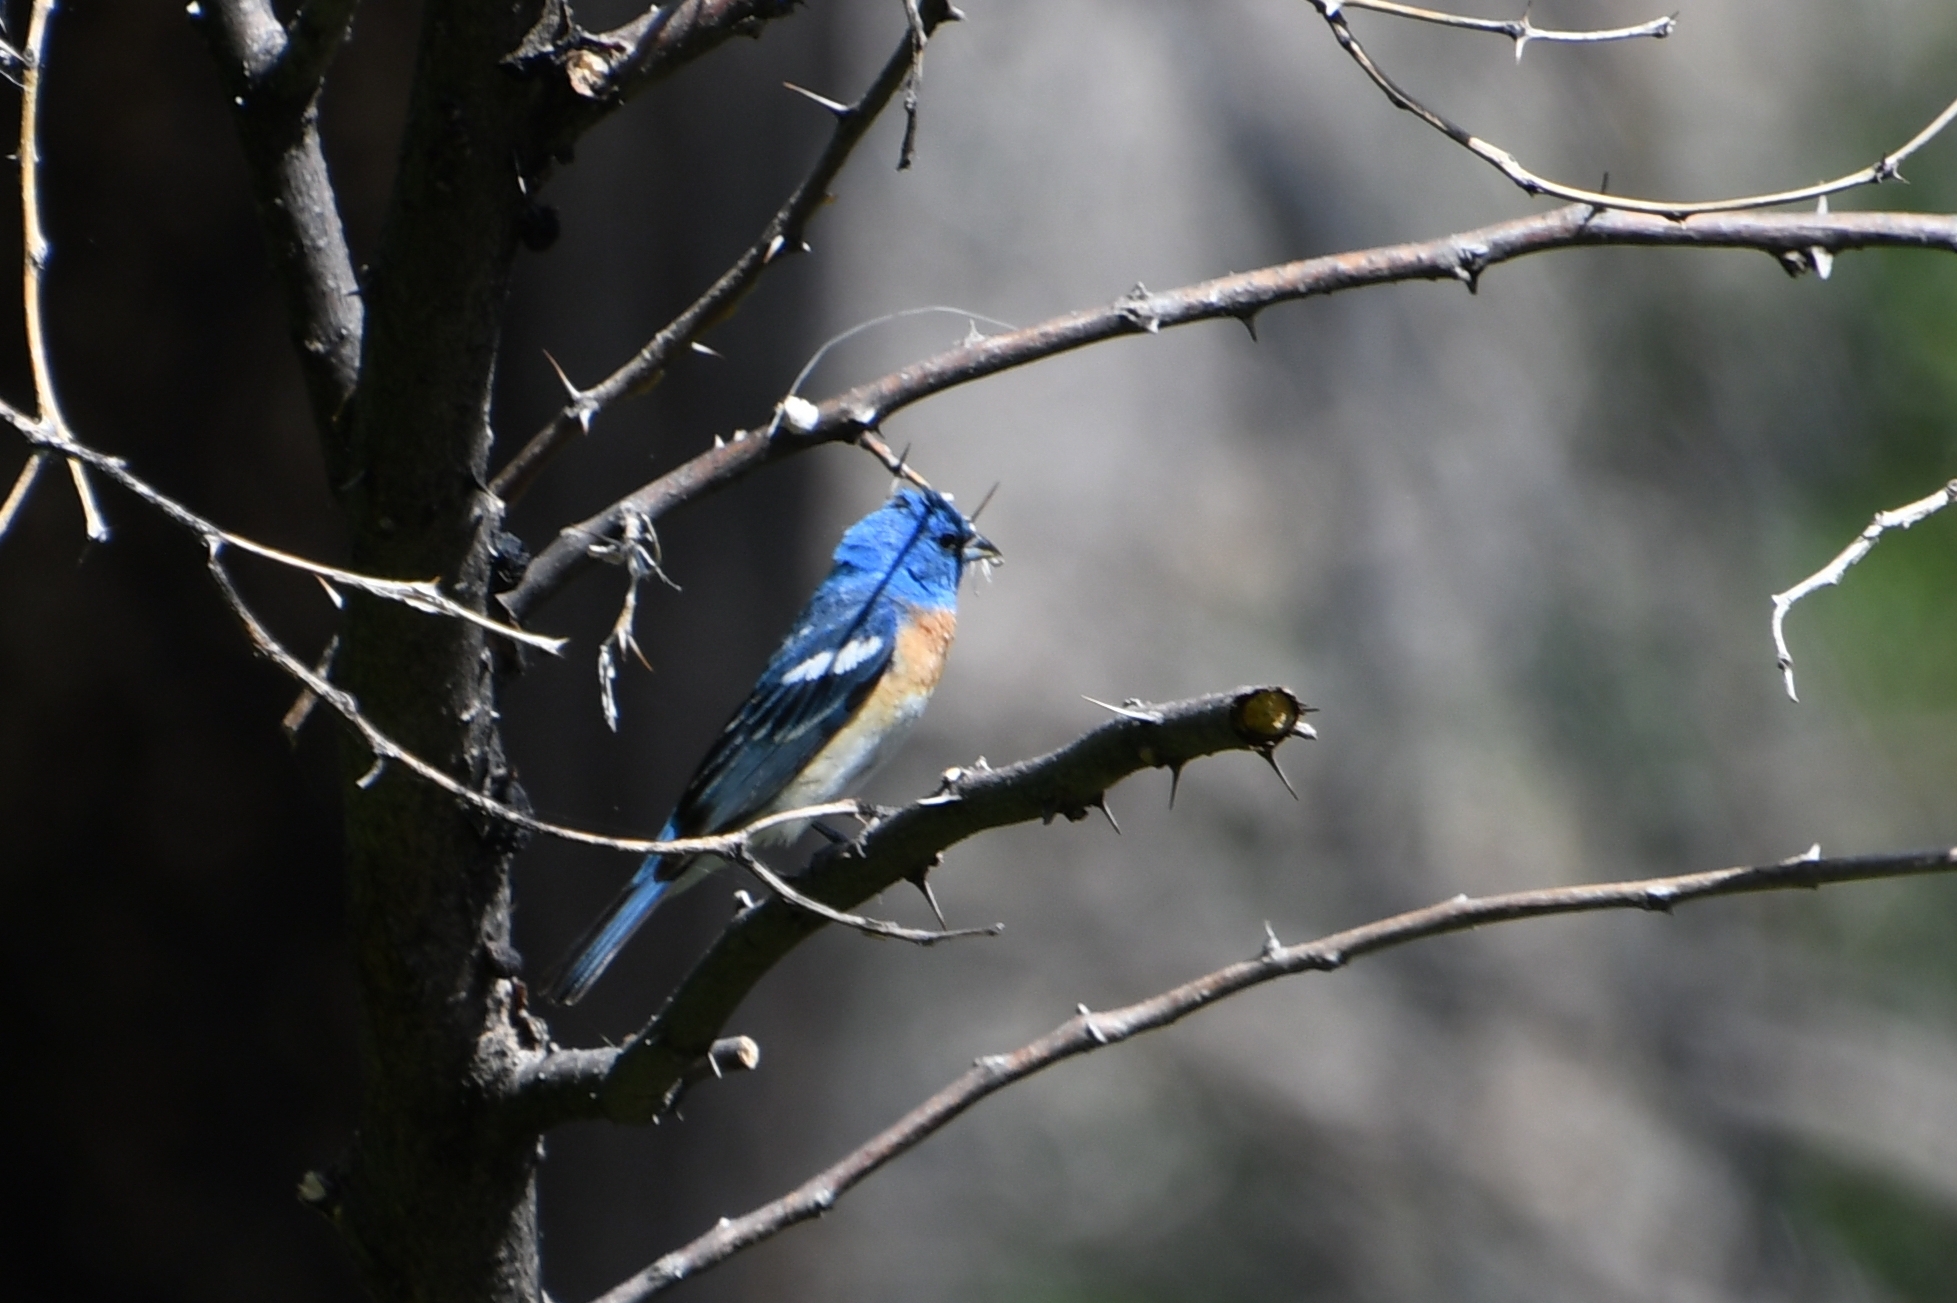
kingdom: Animalia
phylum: Chordata
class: Aves
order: Passeriformes
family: Cardinalidae
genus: Passerina
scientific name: Passerina amoena
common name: Lazuli bunting
